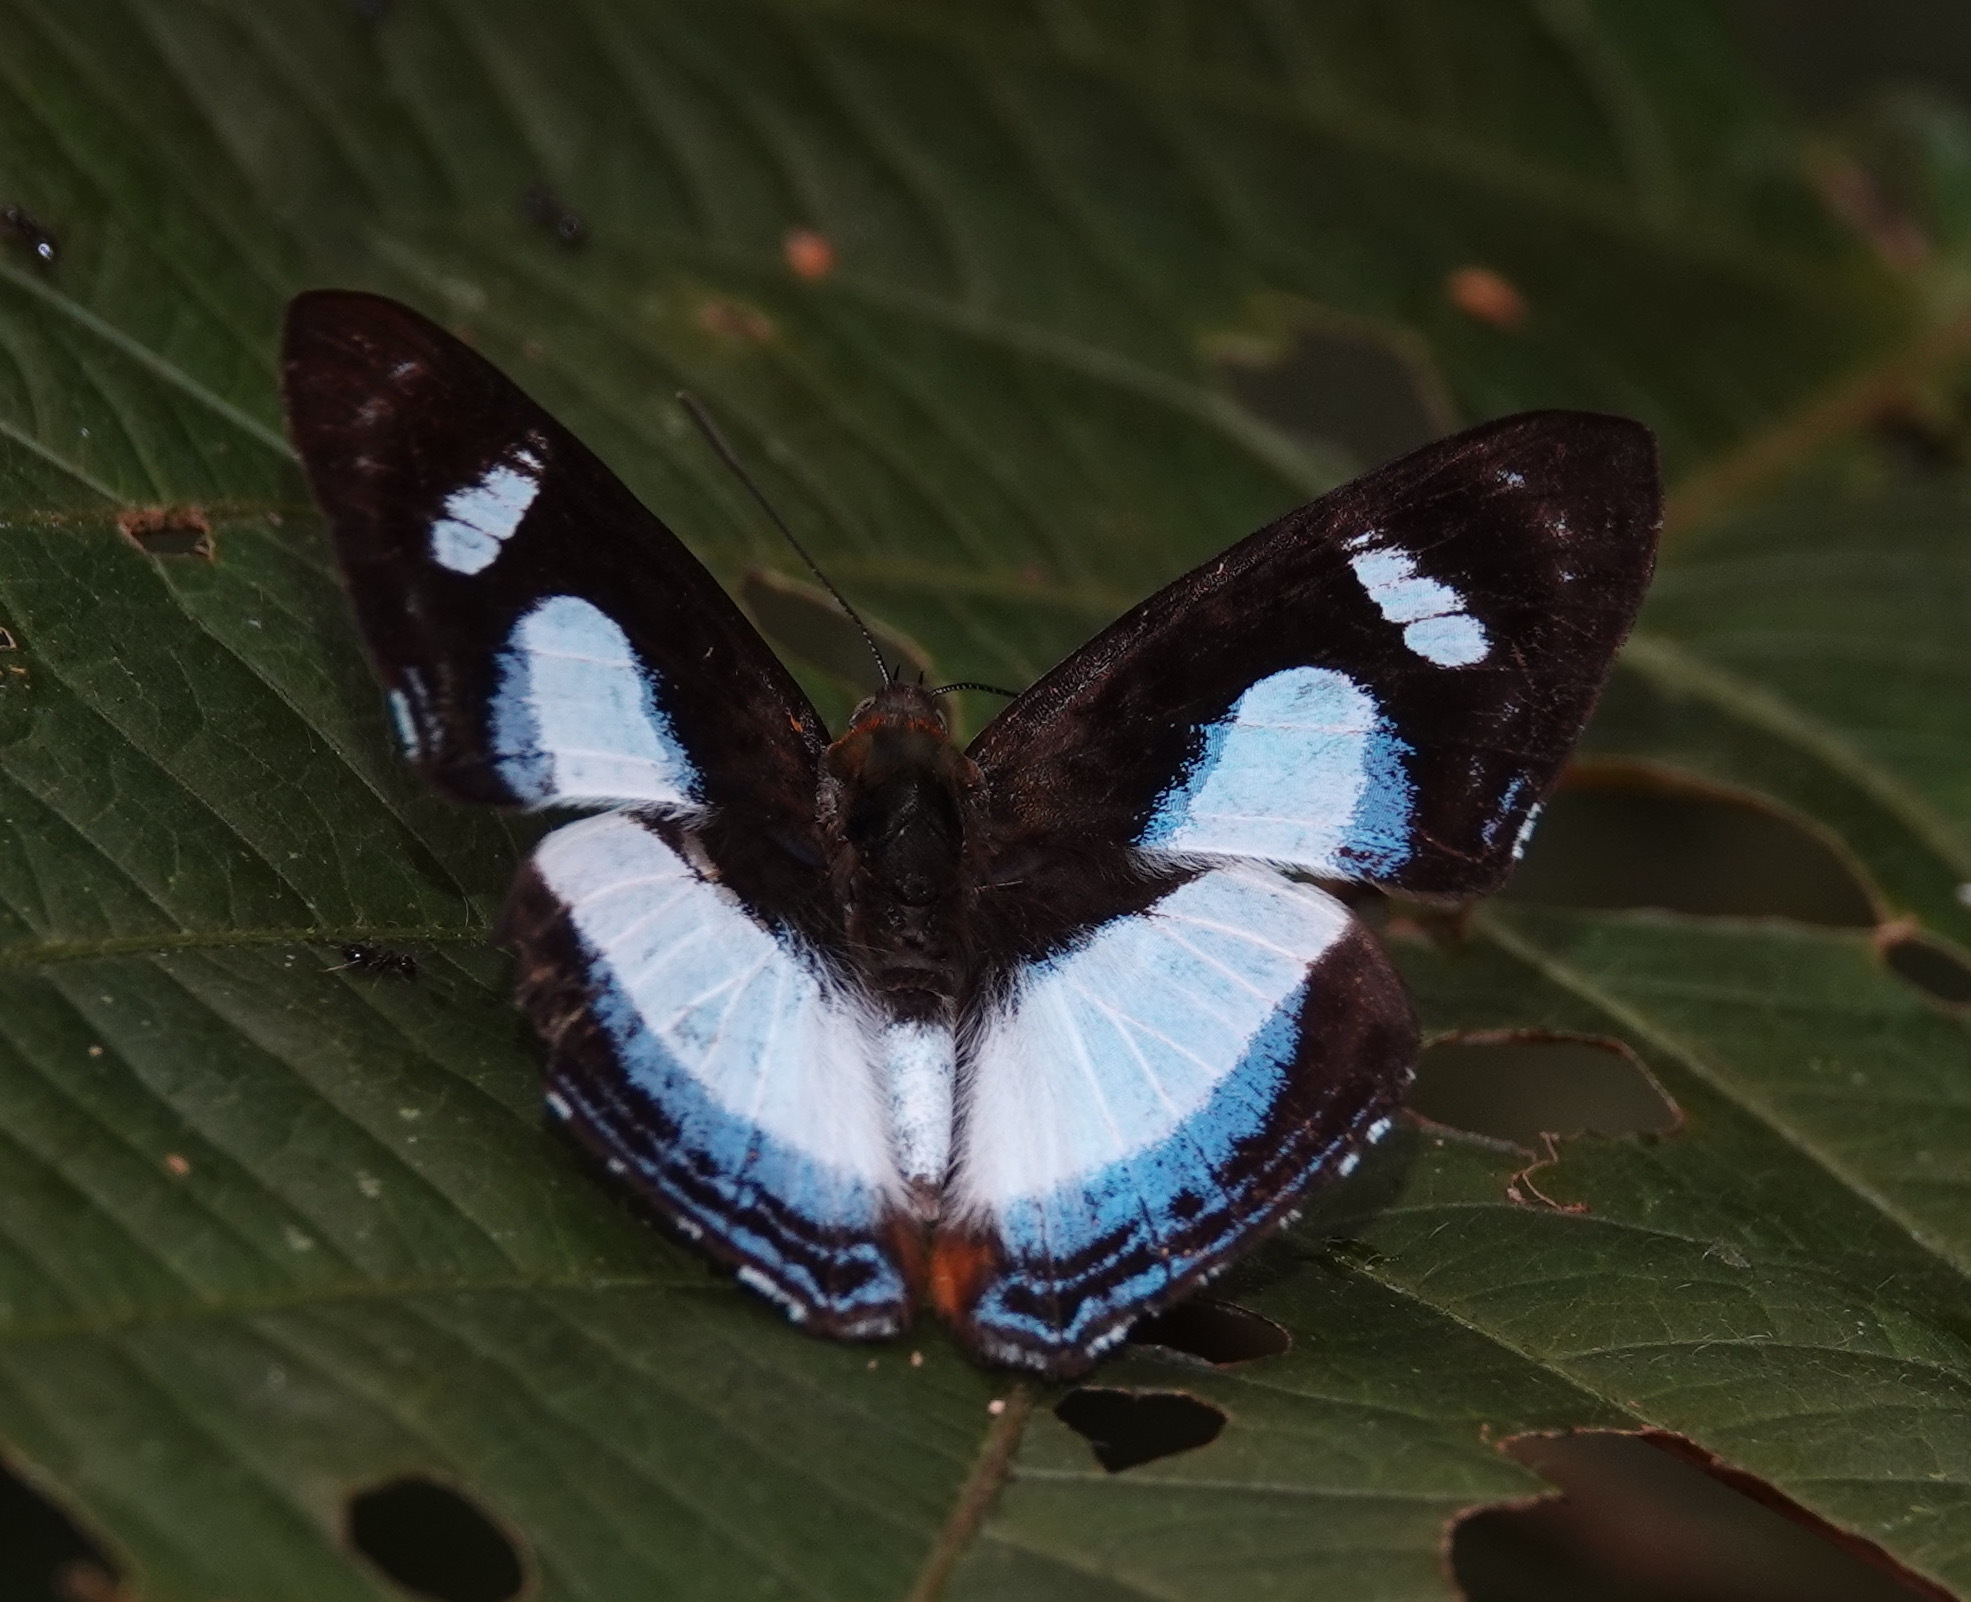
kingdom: Animalia
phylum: Arthropoda
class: Insecta
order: Lepidoptera
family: Riodinidae
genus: Thisbe
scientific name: Thisbe irenea
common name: Irenia metalmark
